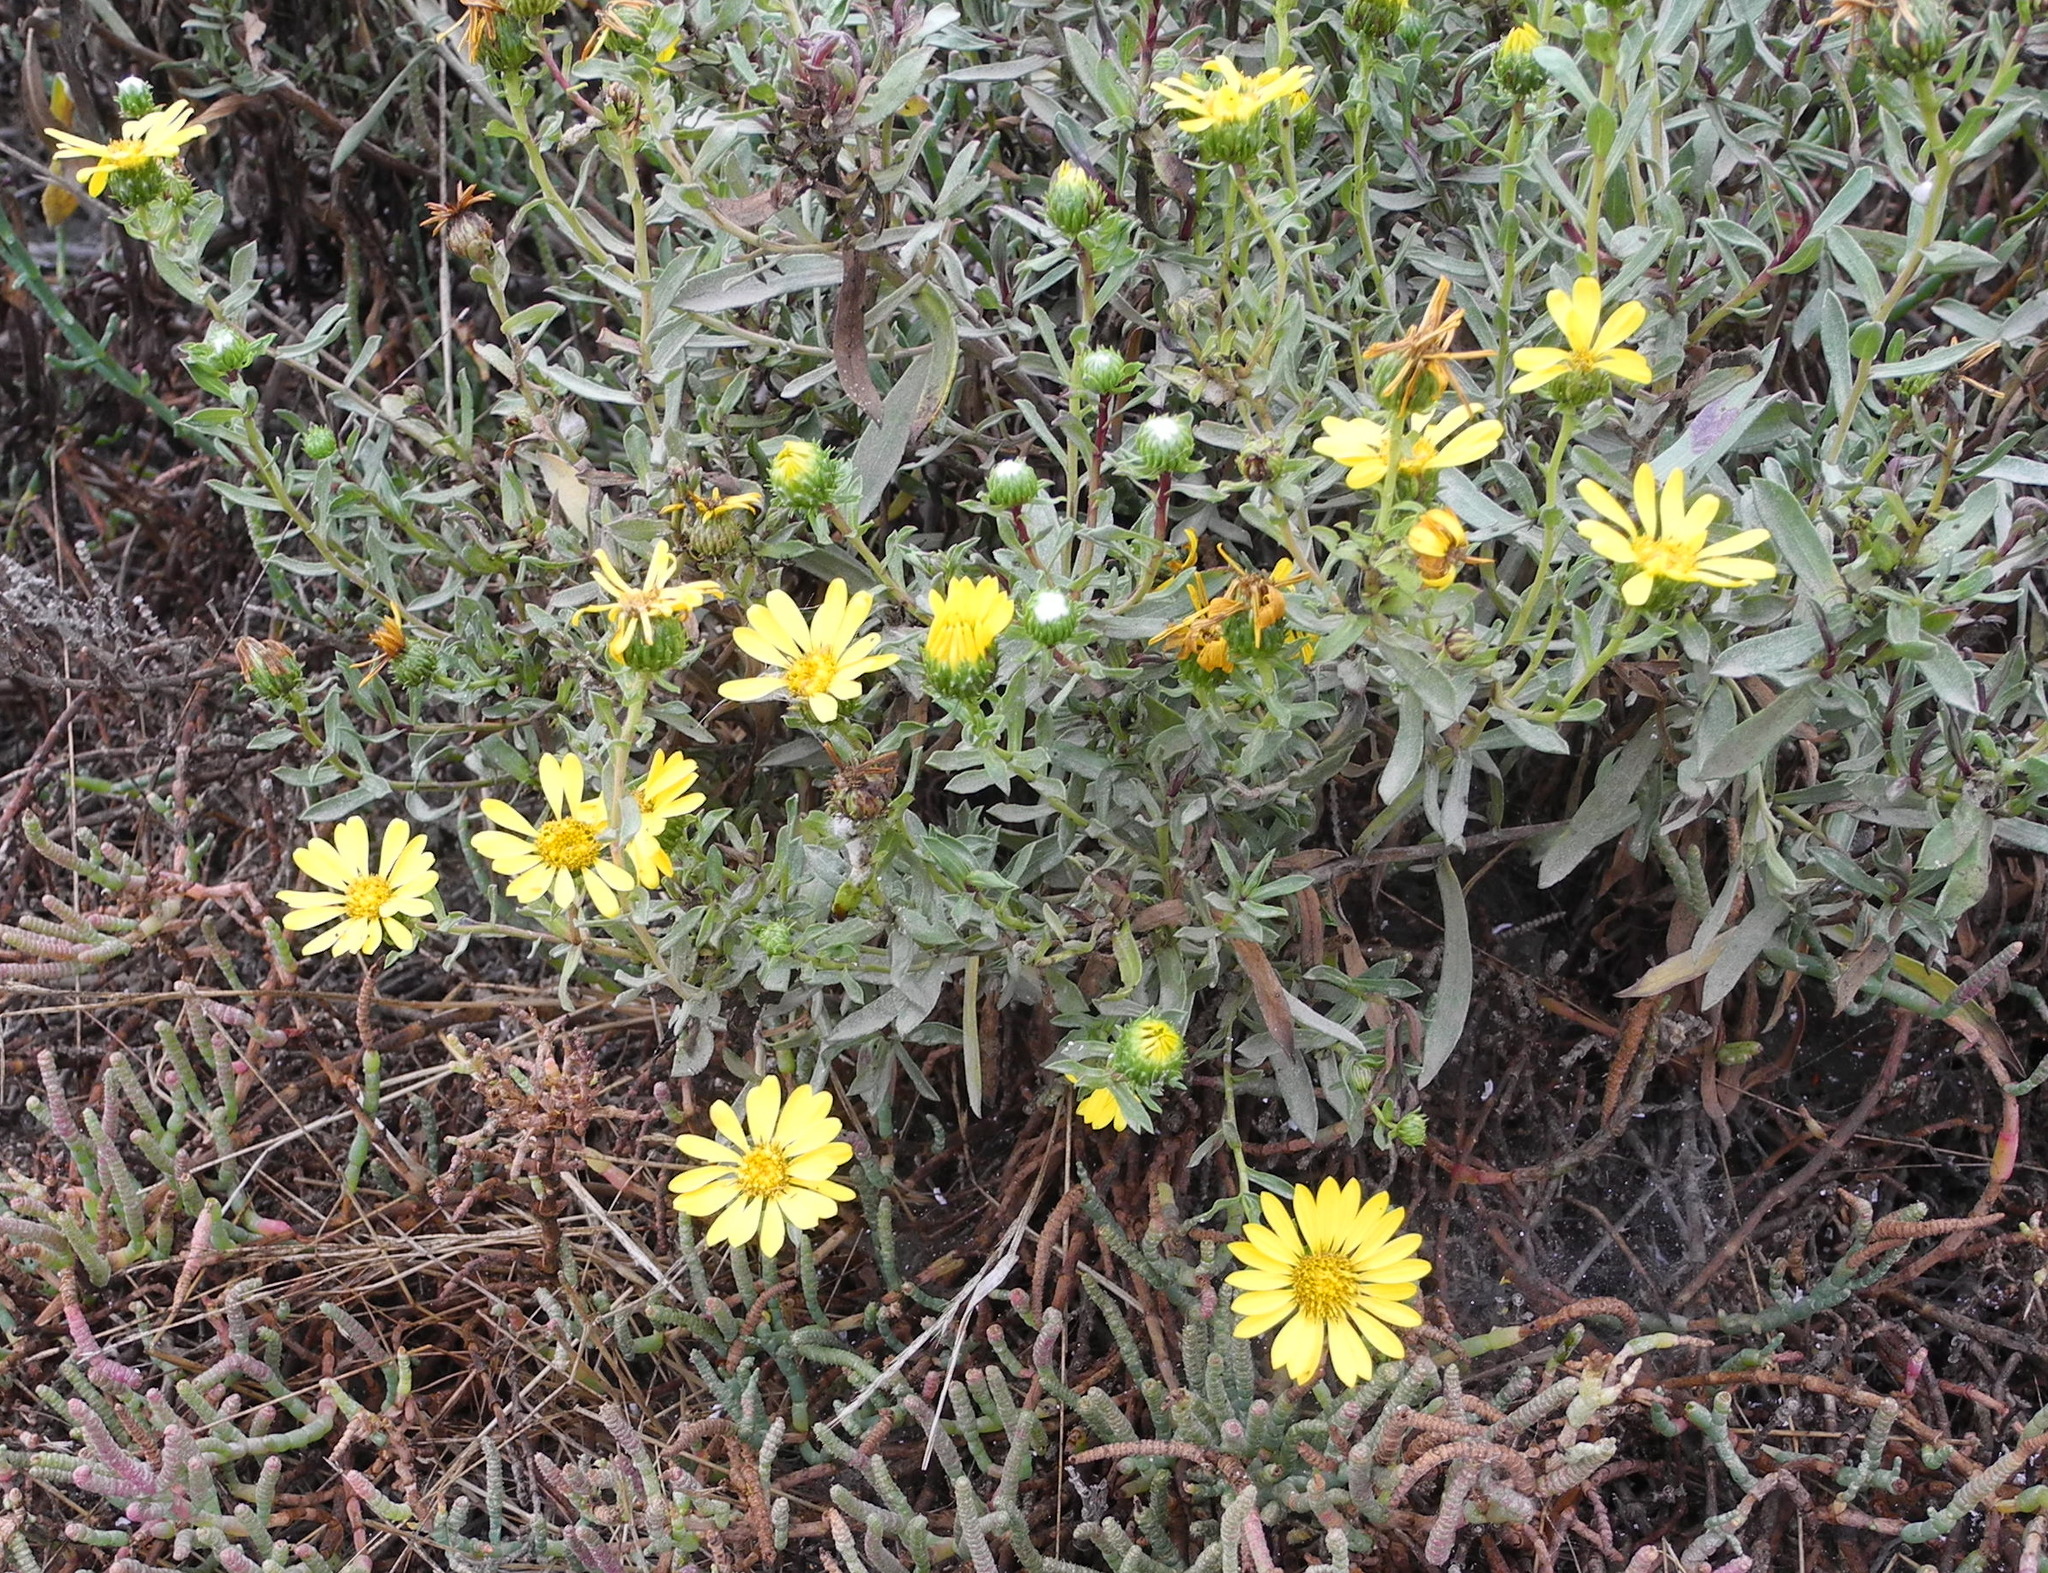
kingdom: Plantae
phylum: Tracheophyta
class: Magnoliopsida
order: Asterales
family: Asteraceae
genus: Grindelia
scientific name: Grindelia hirsutula
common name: Hairy gumweed
